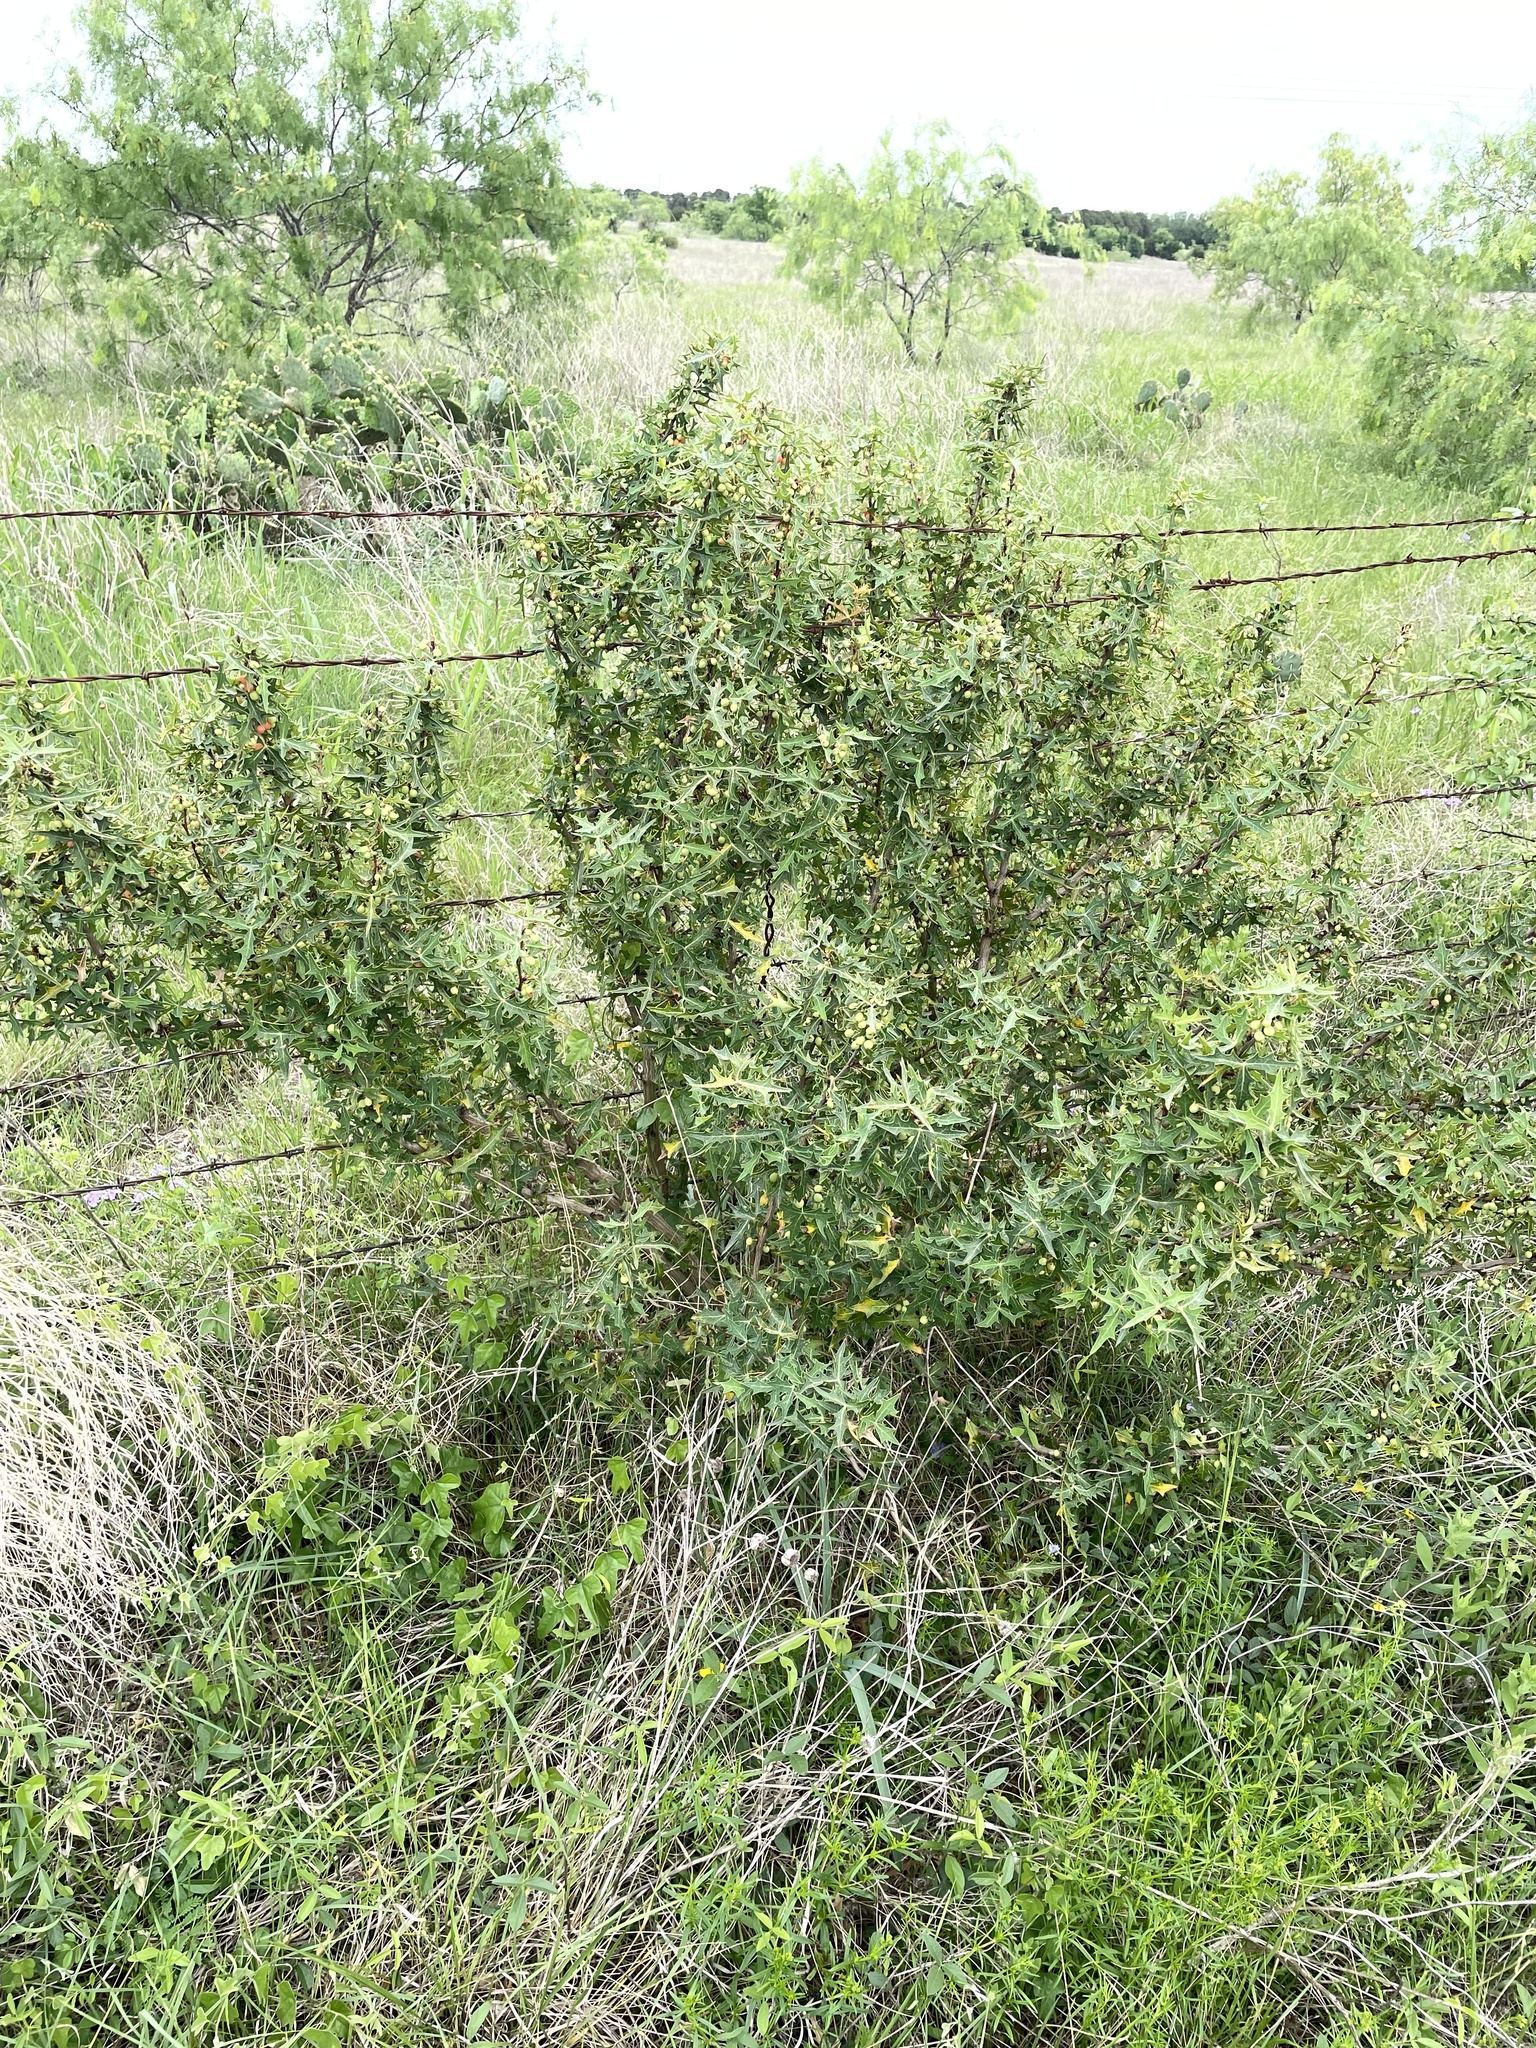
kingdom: Plantae
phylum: Tracheophyta
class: Magnoliopsida
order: Ranunculales
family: Berberidaceae
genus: Alloberberis
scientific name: Alloberberis trifoliolata
